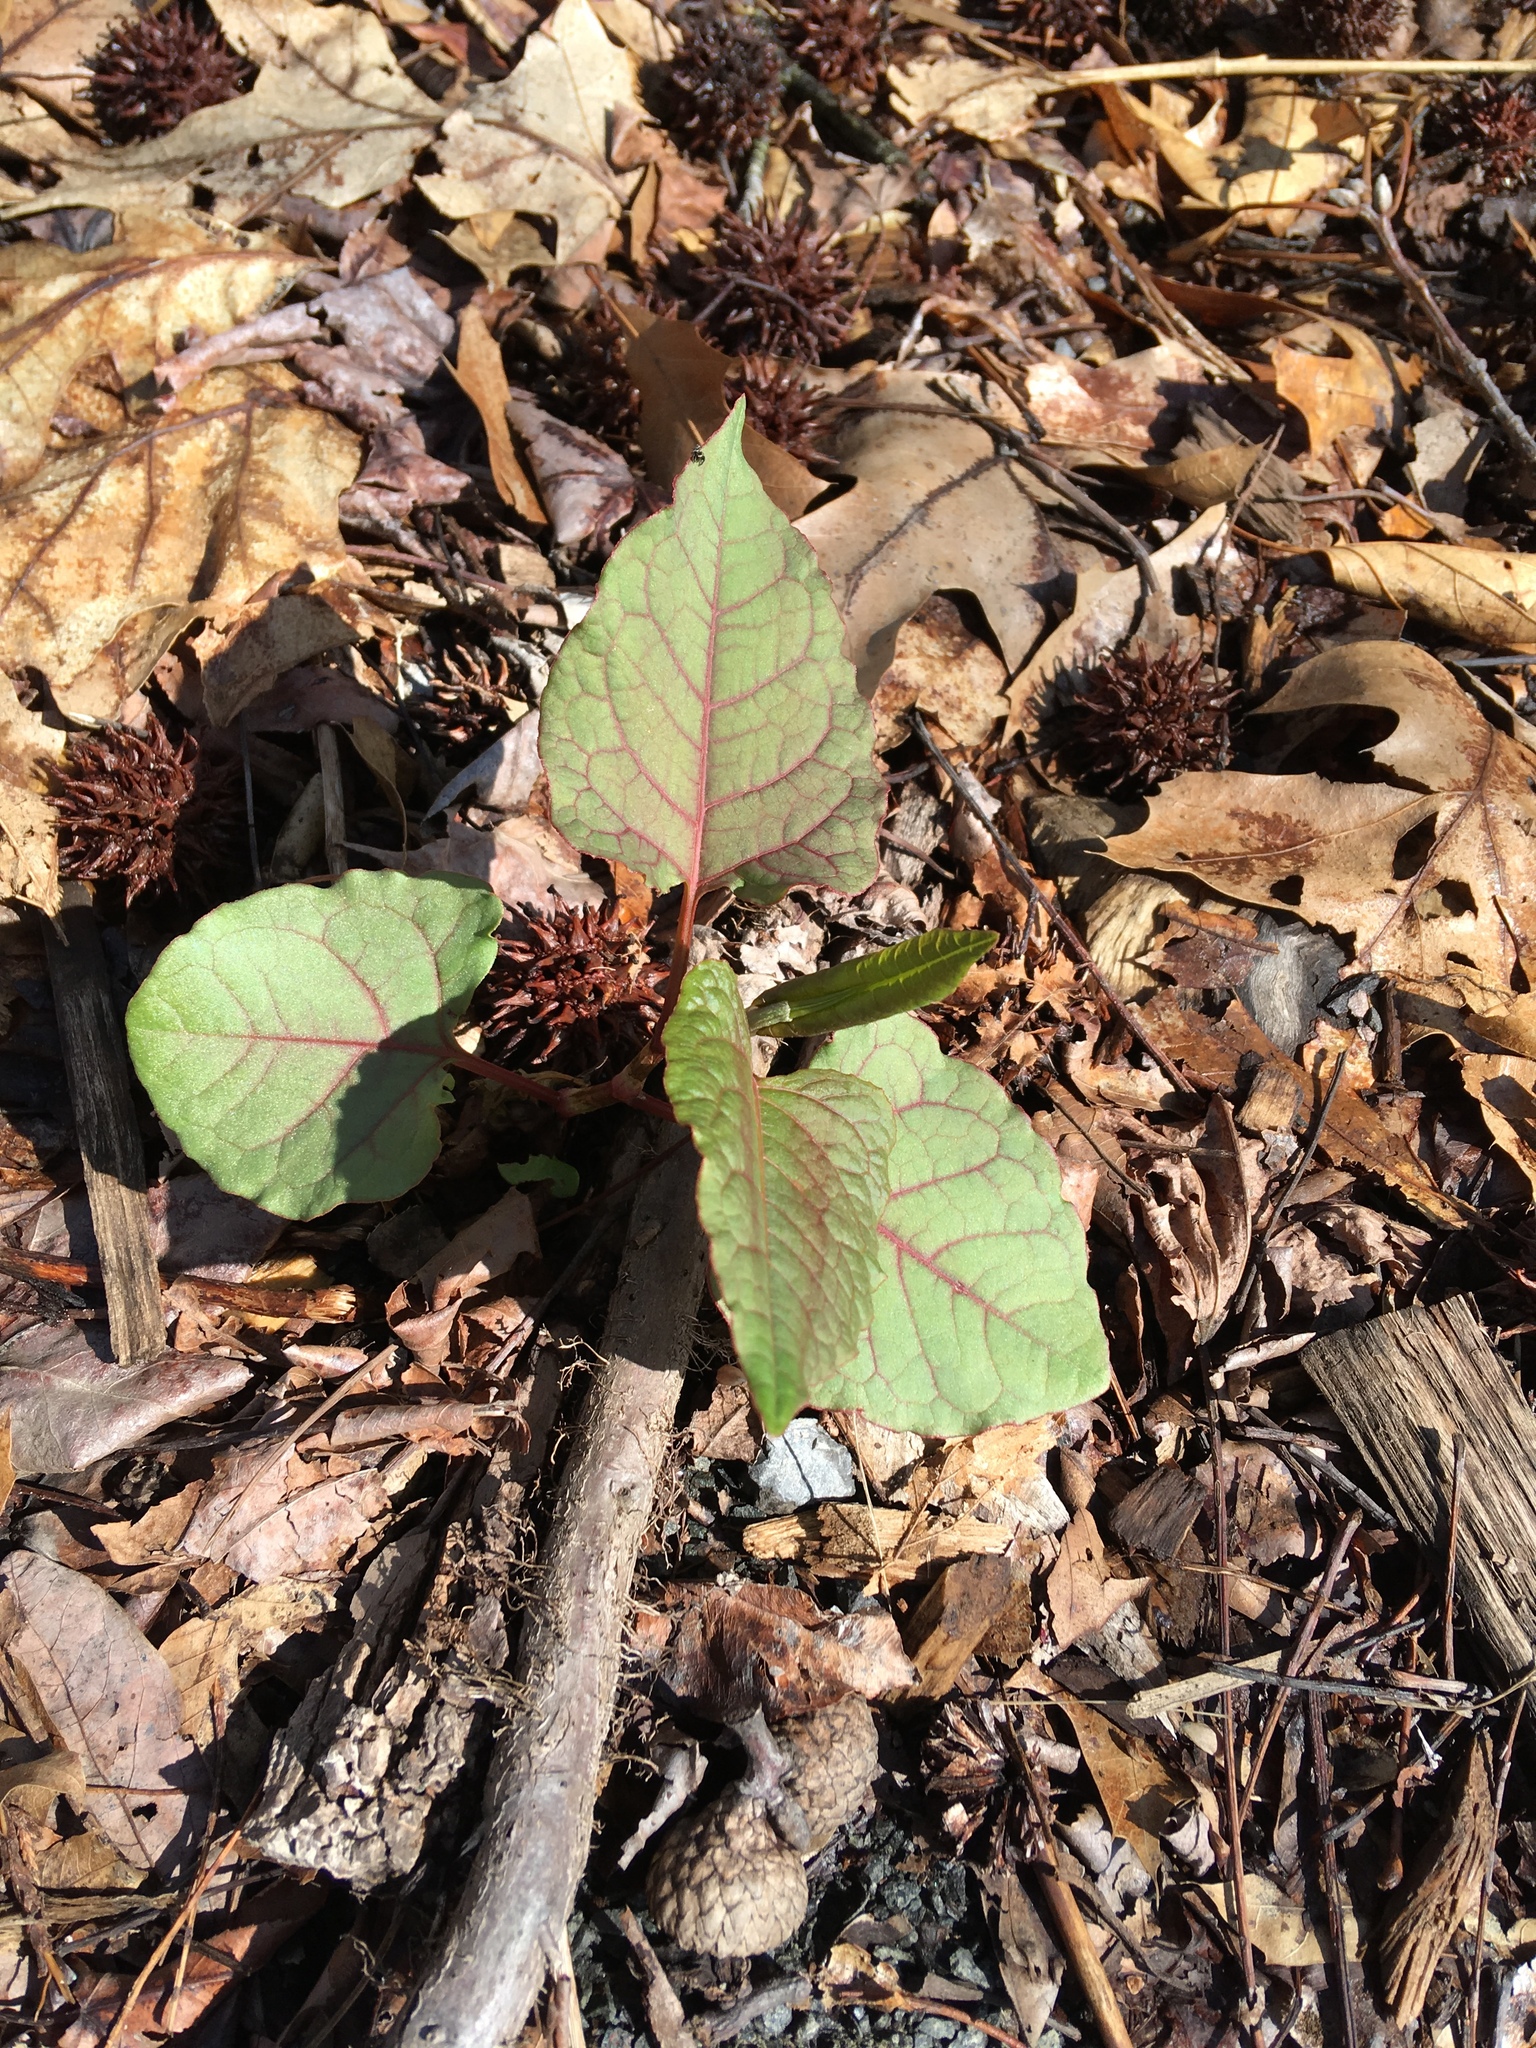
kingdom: Plantae
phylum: Tracheophyta
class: Magnoliopsida
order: Caryophyllales
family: Polygonaceae
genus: Reynoutria
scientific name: Reynoutria japonica
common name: Japanese knotweed
